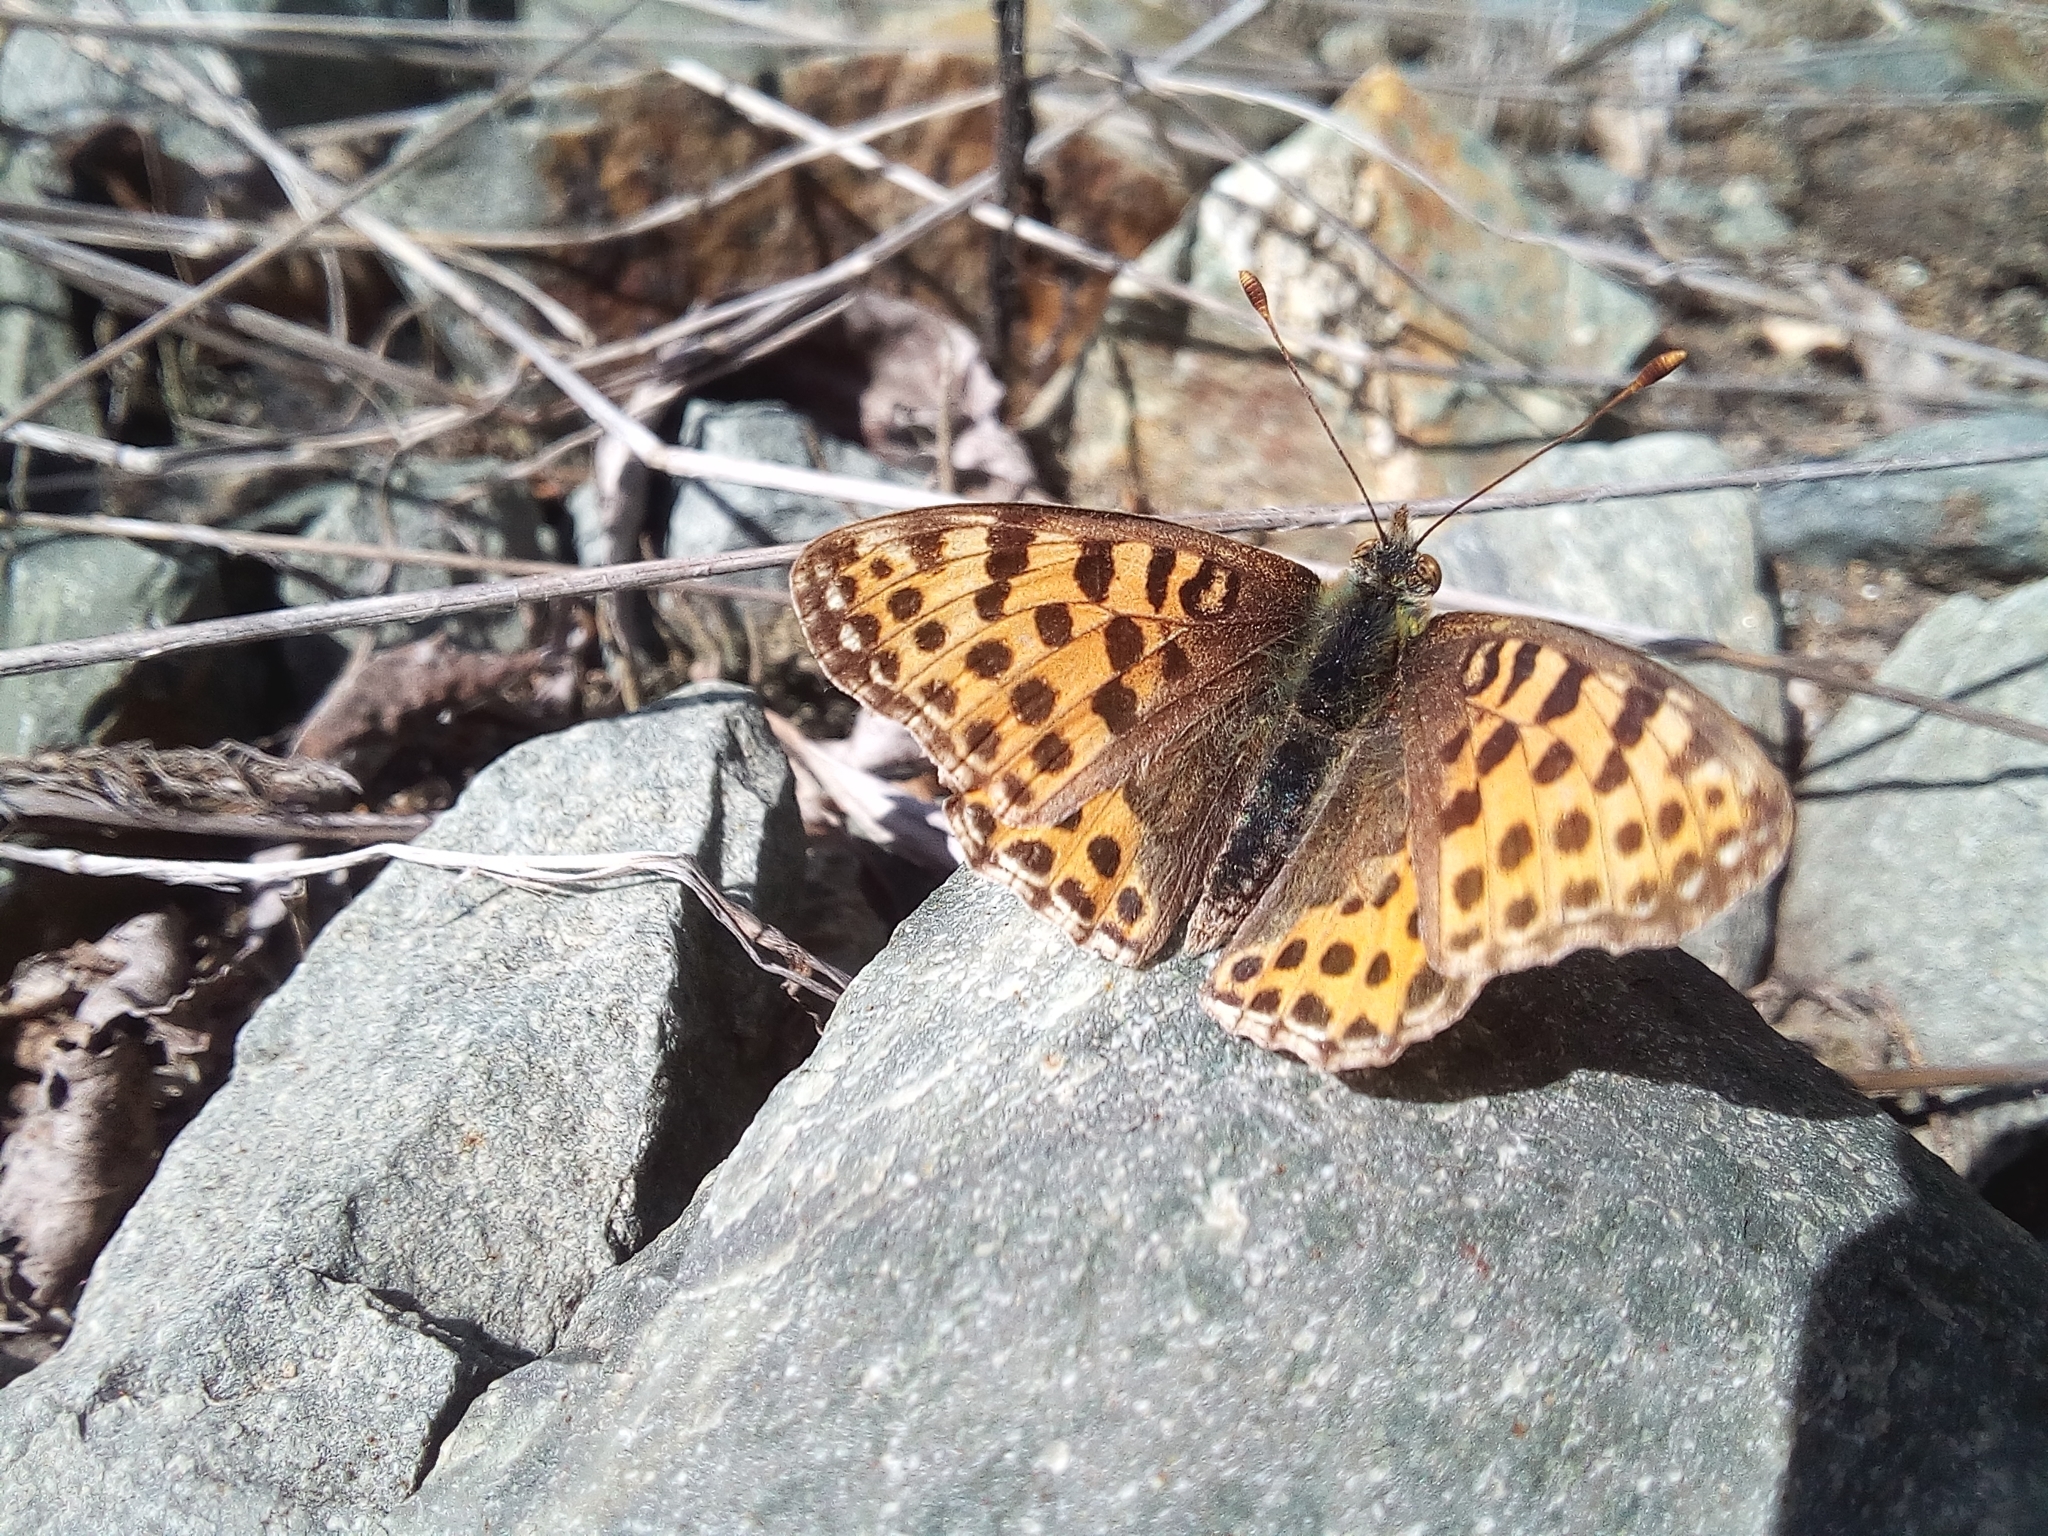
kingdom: Animalia
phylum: Arthropoda
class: Insecta
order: Lepidoptera
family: Nymphalidae
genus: Issoria
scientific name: Issoria lathonia
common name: Queen of spain fritillary
